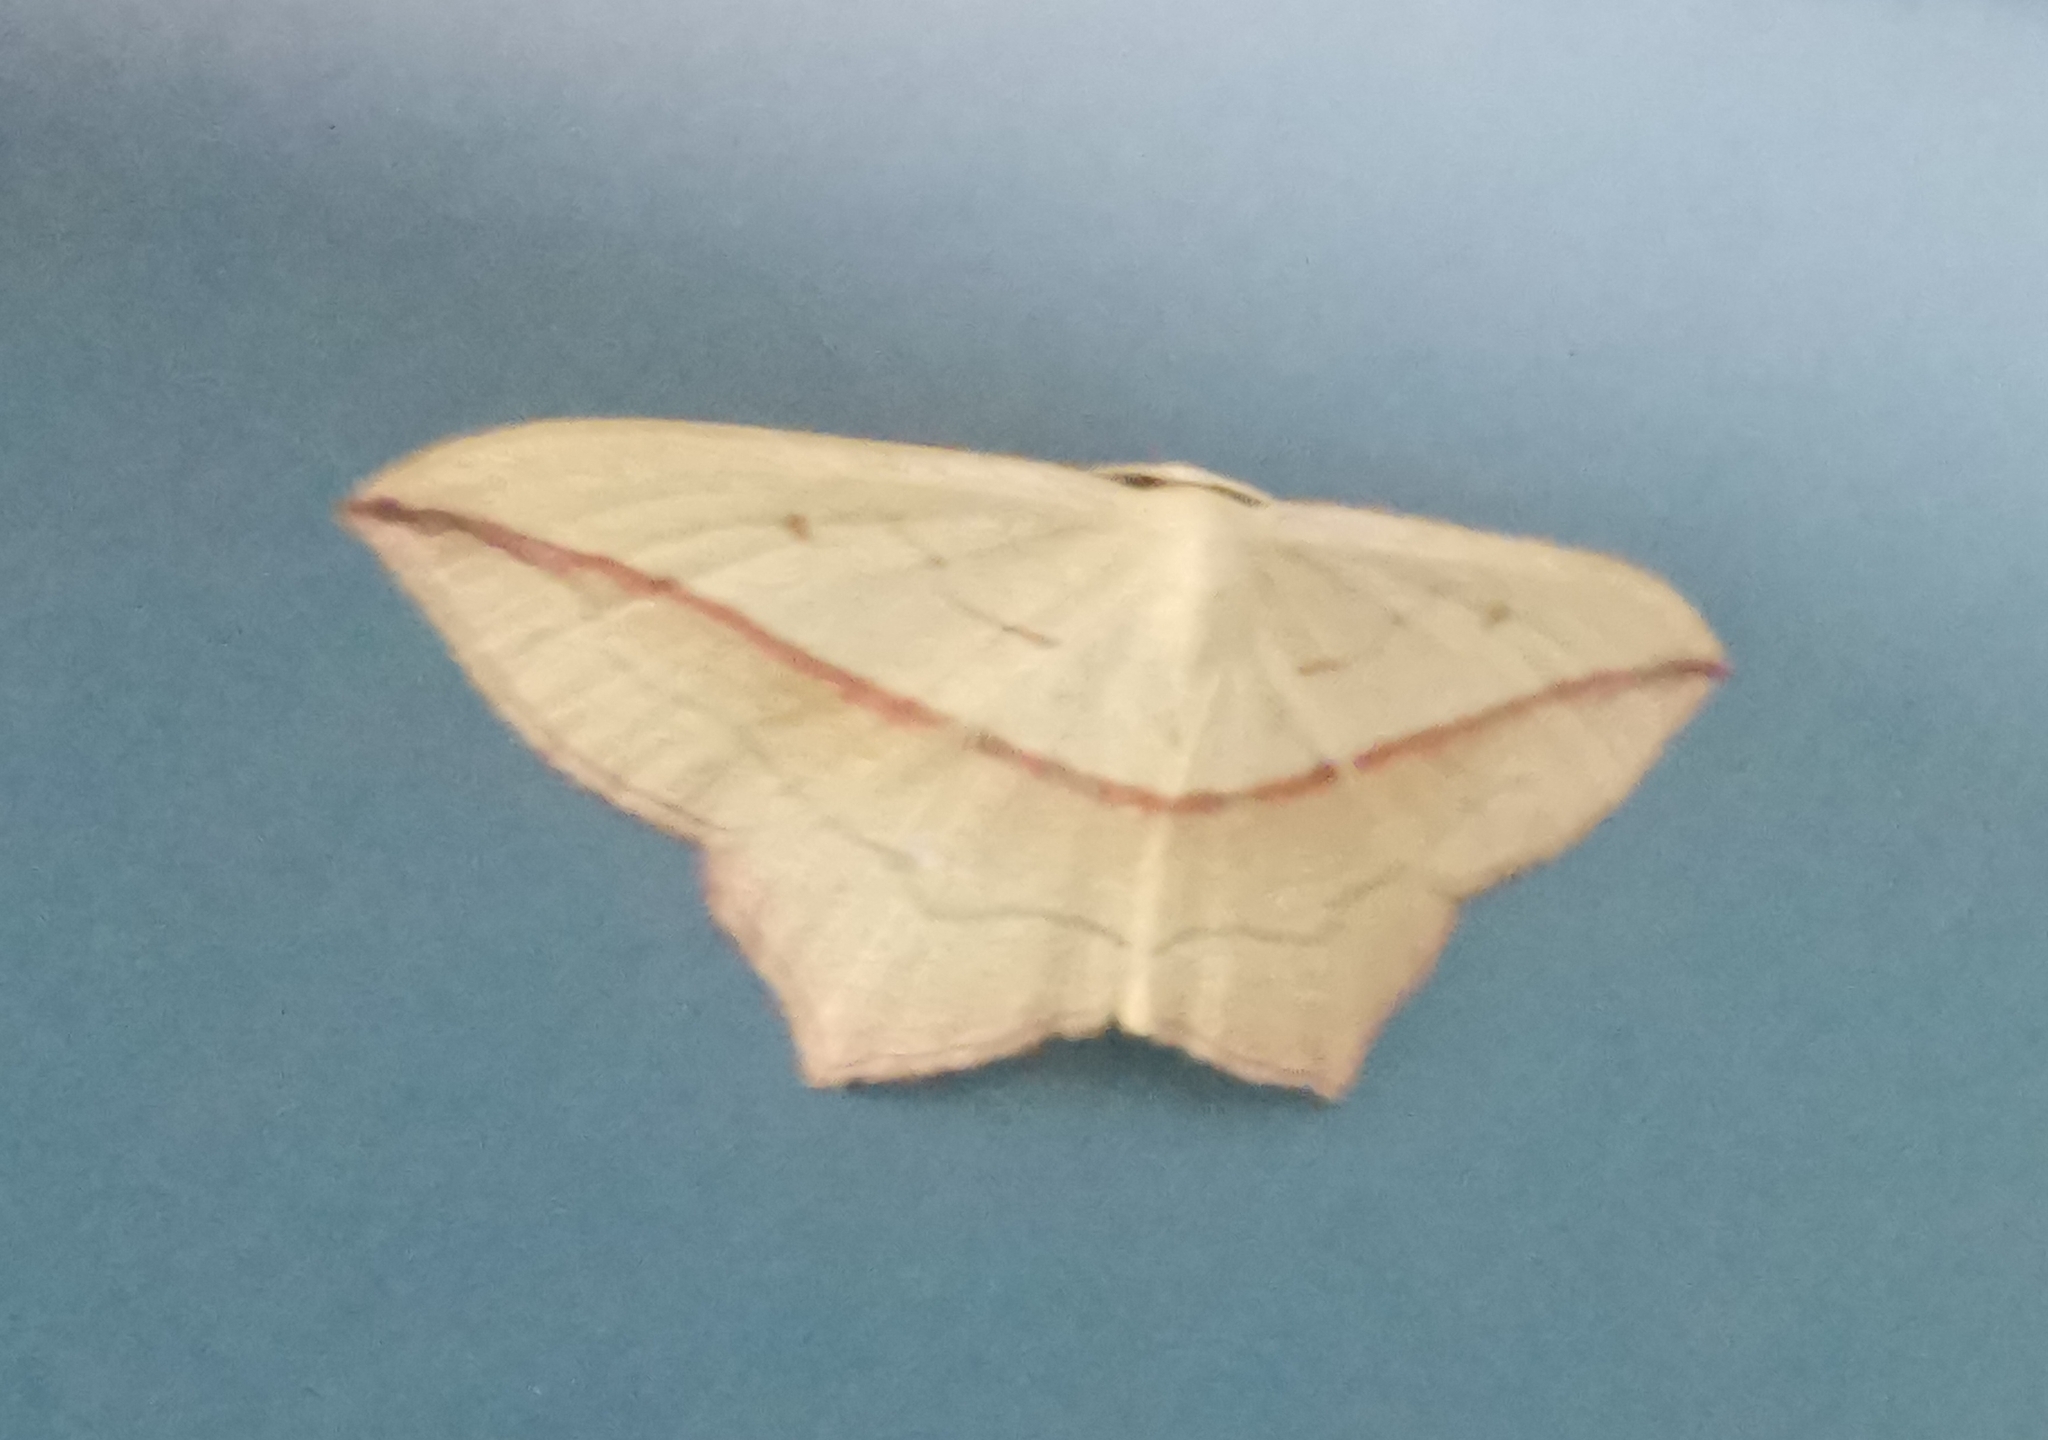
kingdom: Animalia
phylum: Arthropoda
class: Insecta
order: Lepidoptera
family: Geometridae
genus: Timandra
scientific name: Timandra comae
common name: Blood-vein
